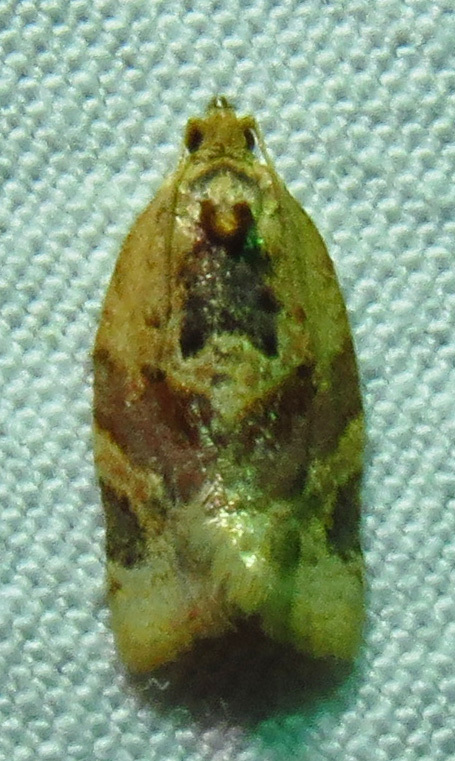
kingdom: Animalia
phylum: Arthropoda
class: Insecta
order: Lepidoptera
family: Tortricidae
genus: Argyrotaenia
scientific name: Argyrotaenia velutinana
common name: Red-banded leafroller moth
